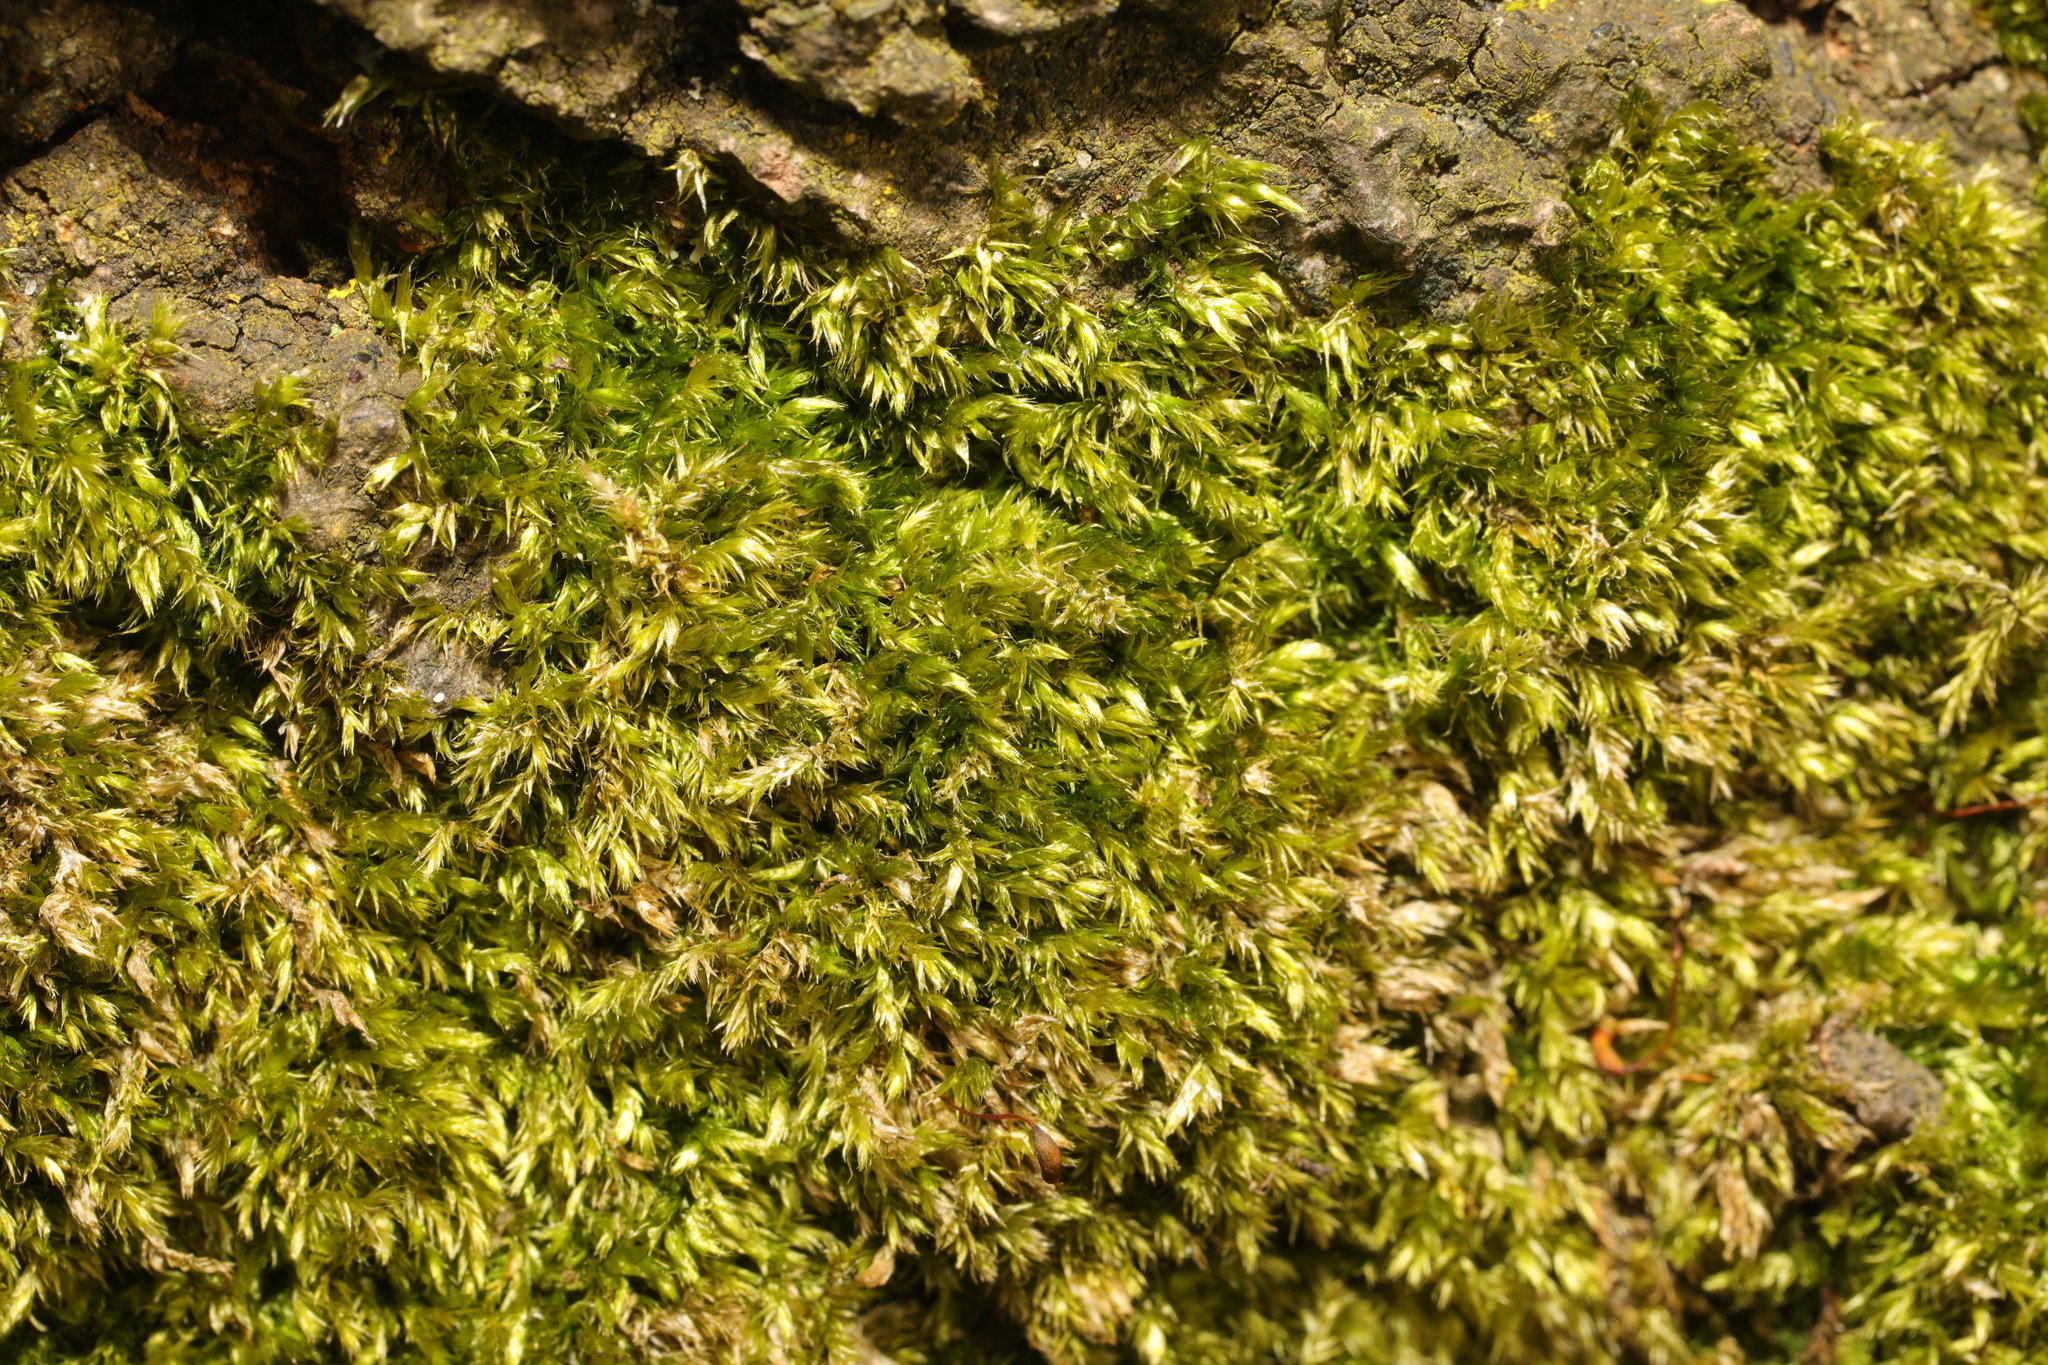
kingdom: Plantae
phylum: Bryophyta
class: Bryopsida
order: Hypnales
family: Hypnaceae
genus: Hypnum
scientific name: Hypnum resupinatum
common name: Supine plait-moss
